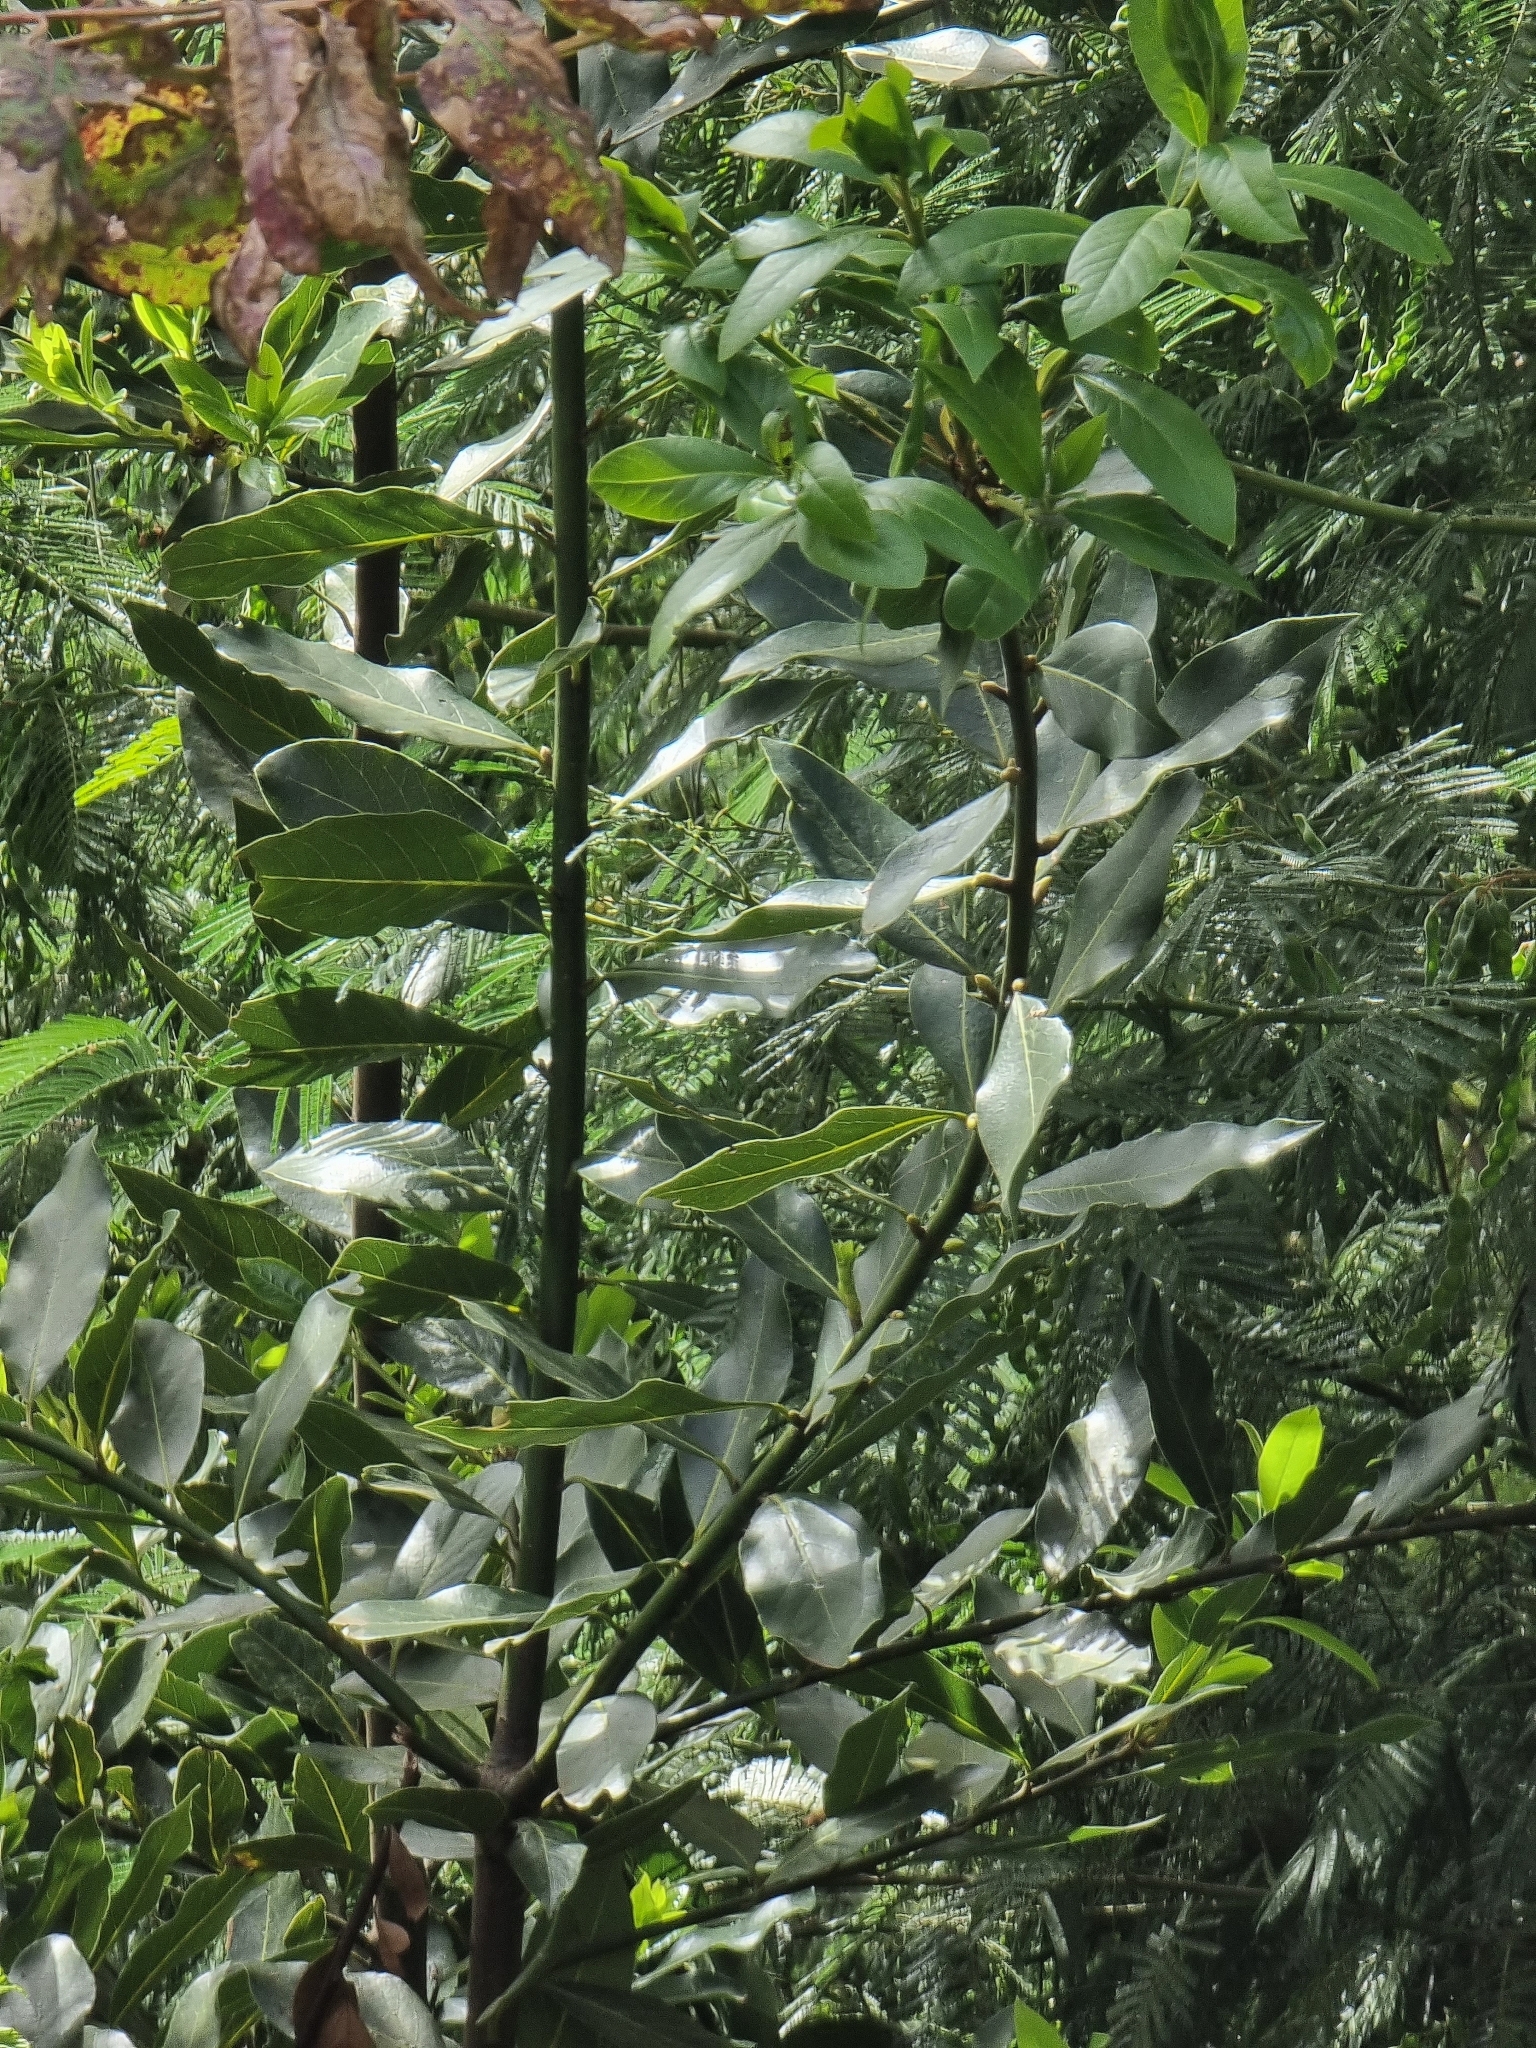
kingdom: Plantae
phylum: Tracheophyta
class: Magnoliopsida
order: Laurales
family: Lauraceae
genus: Laurus
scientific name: Laurus novocanariensis
